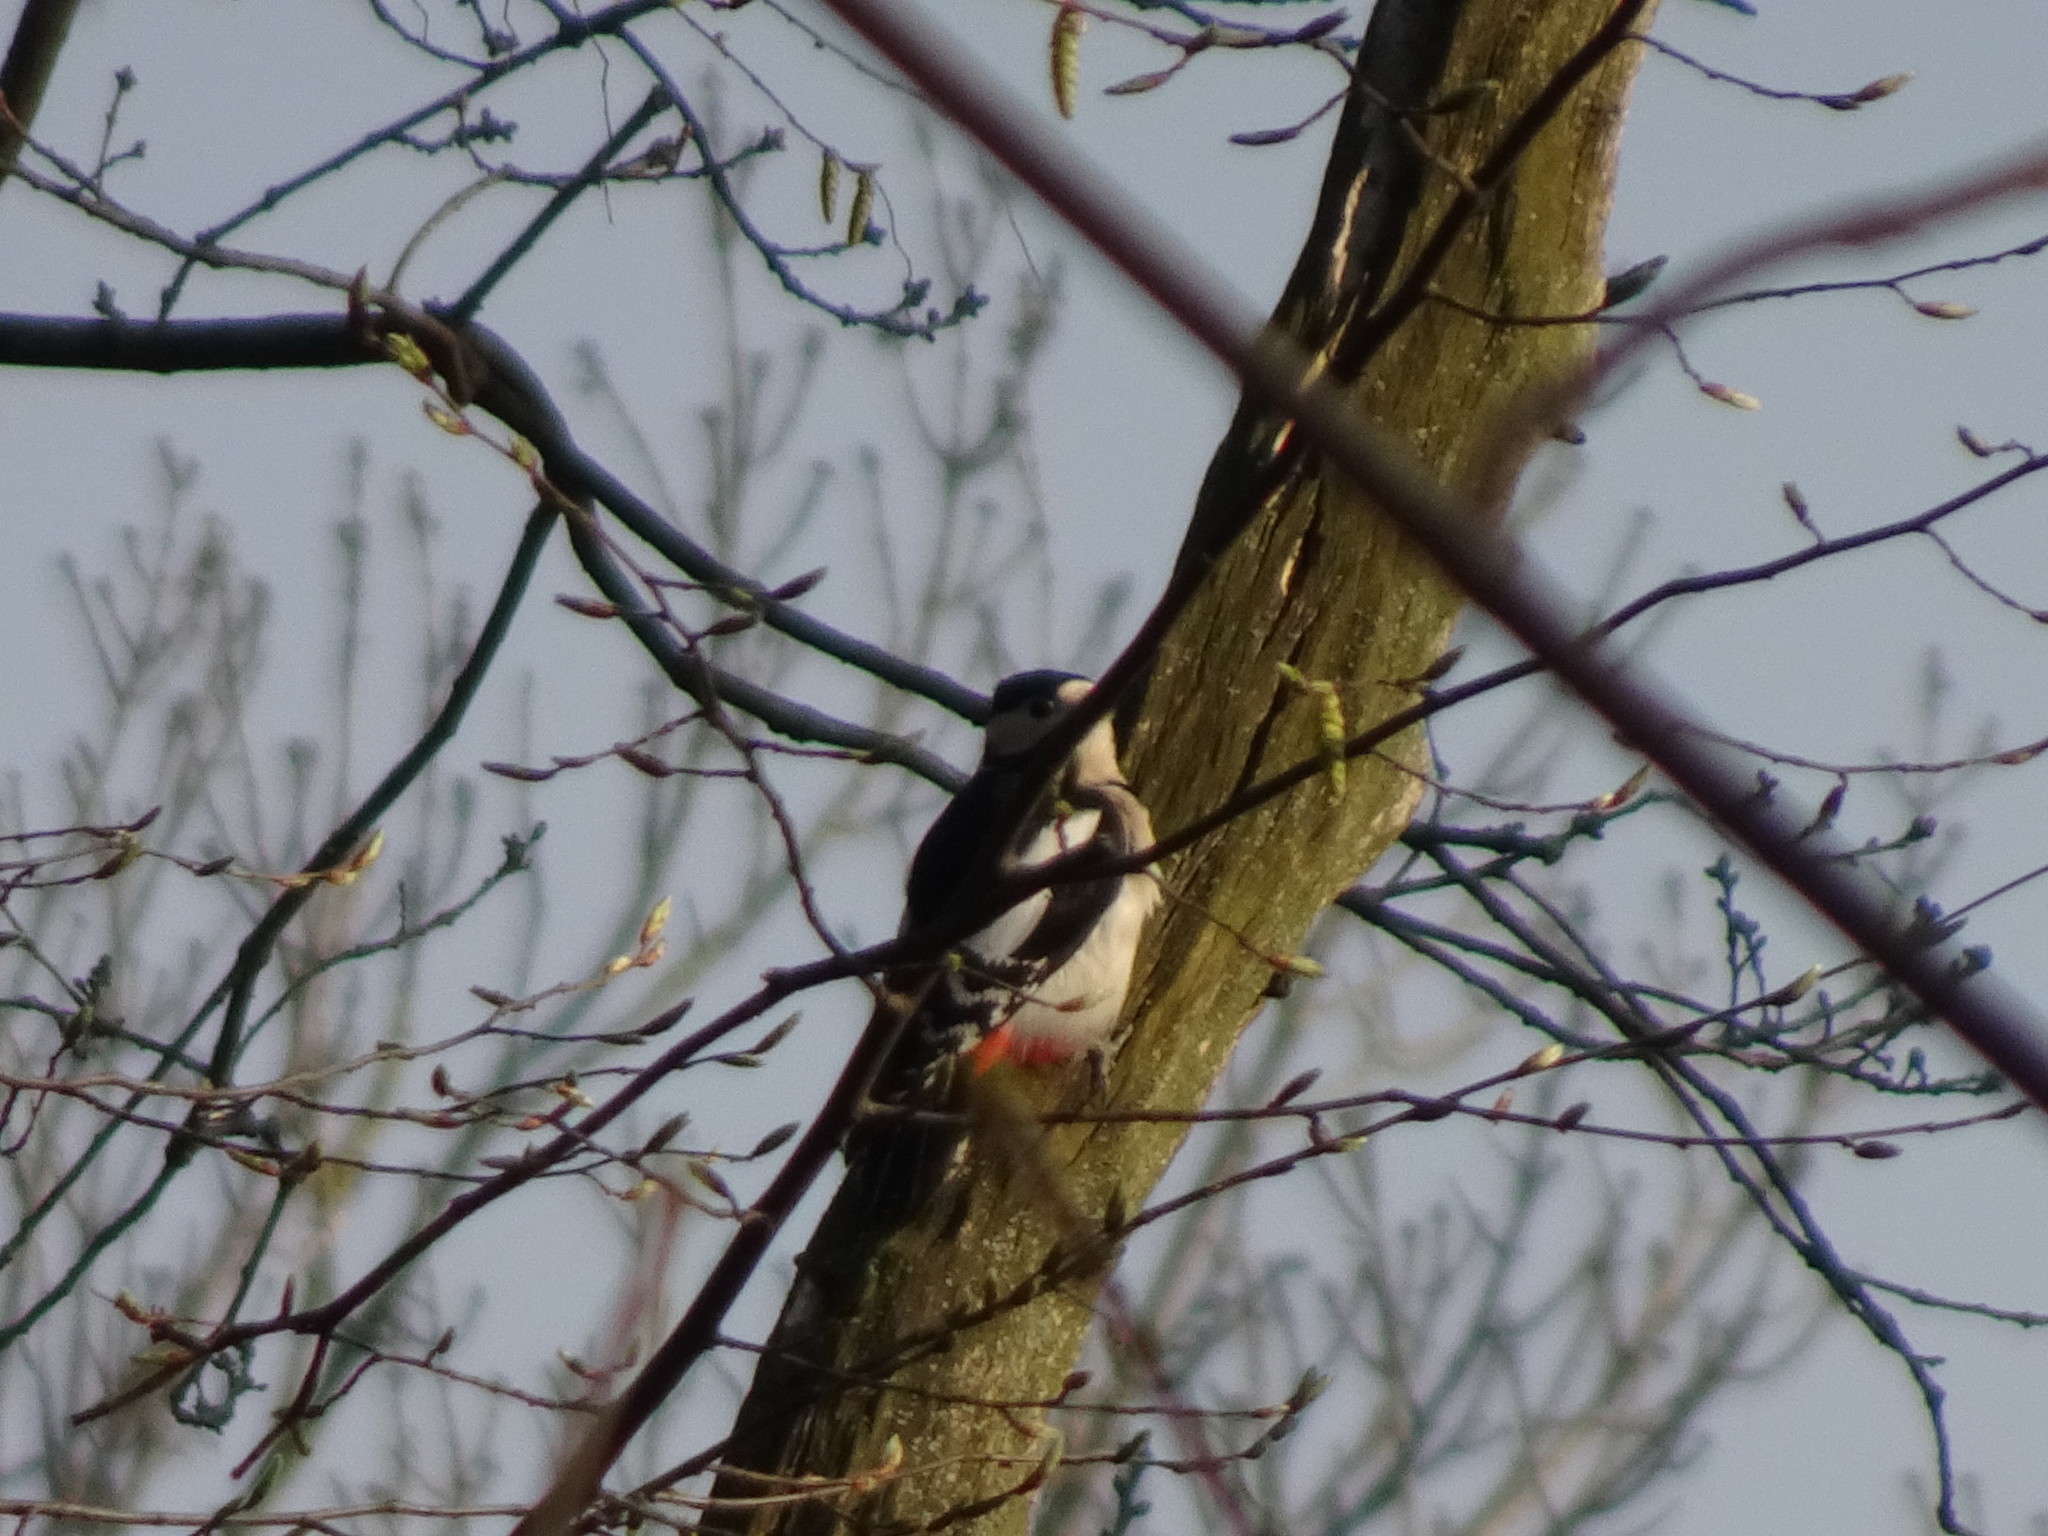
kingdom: Animalia
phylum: Chordata
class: Aves
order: Piciformes
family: Picidae
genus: Dendrocopos
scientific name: Dendrocopos major
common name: Great spotted woodpecker
